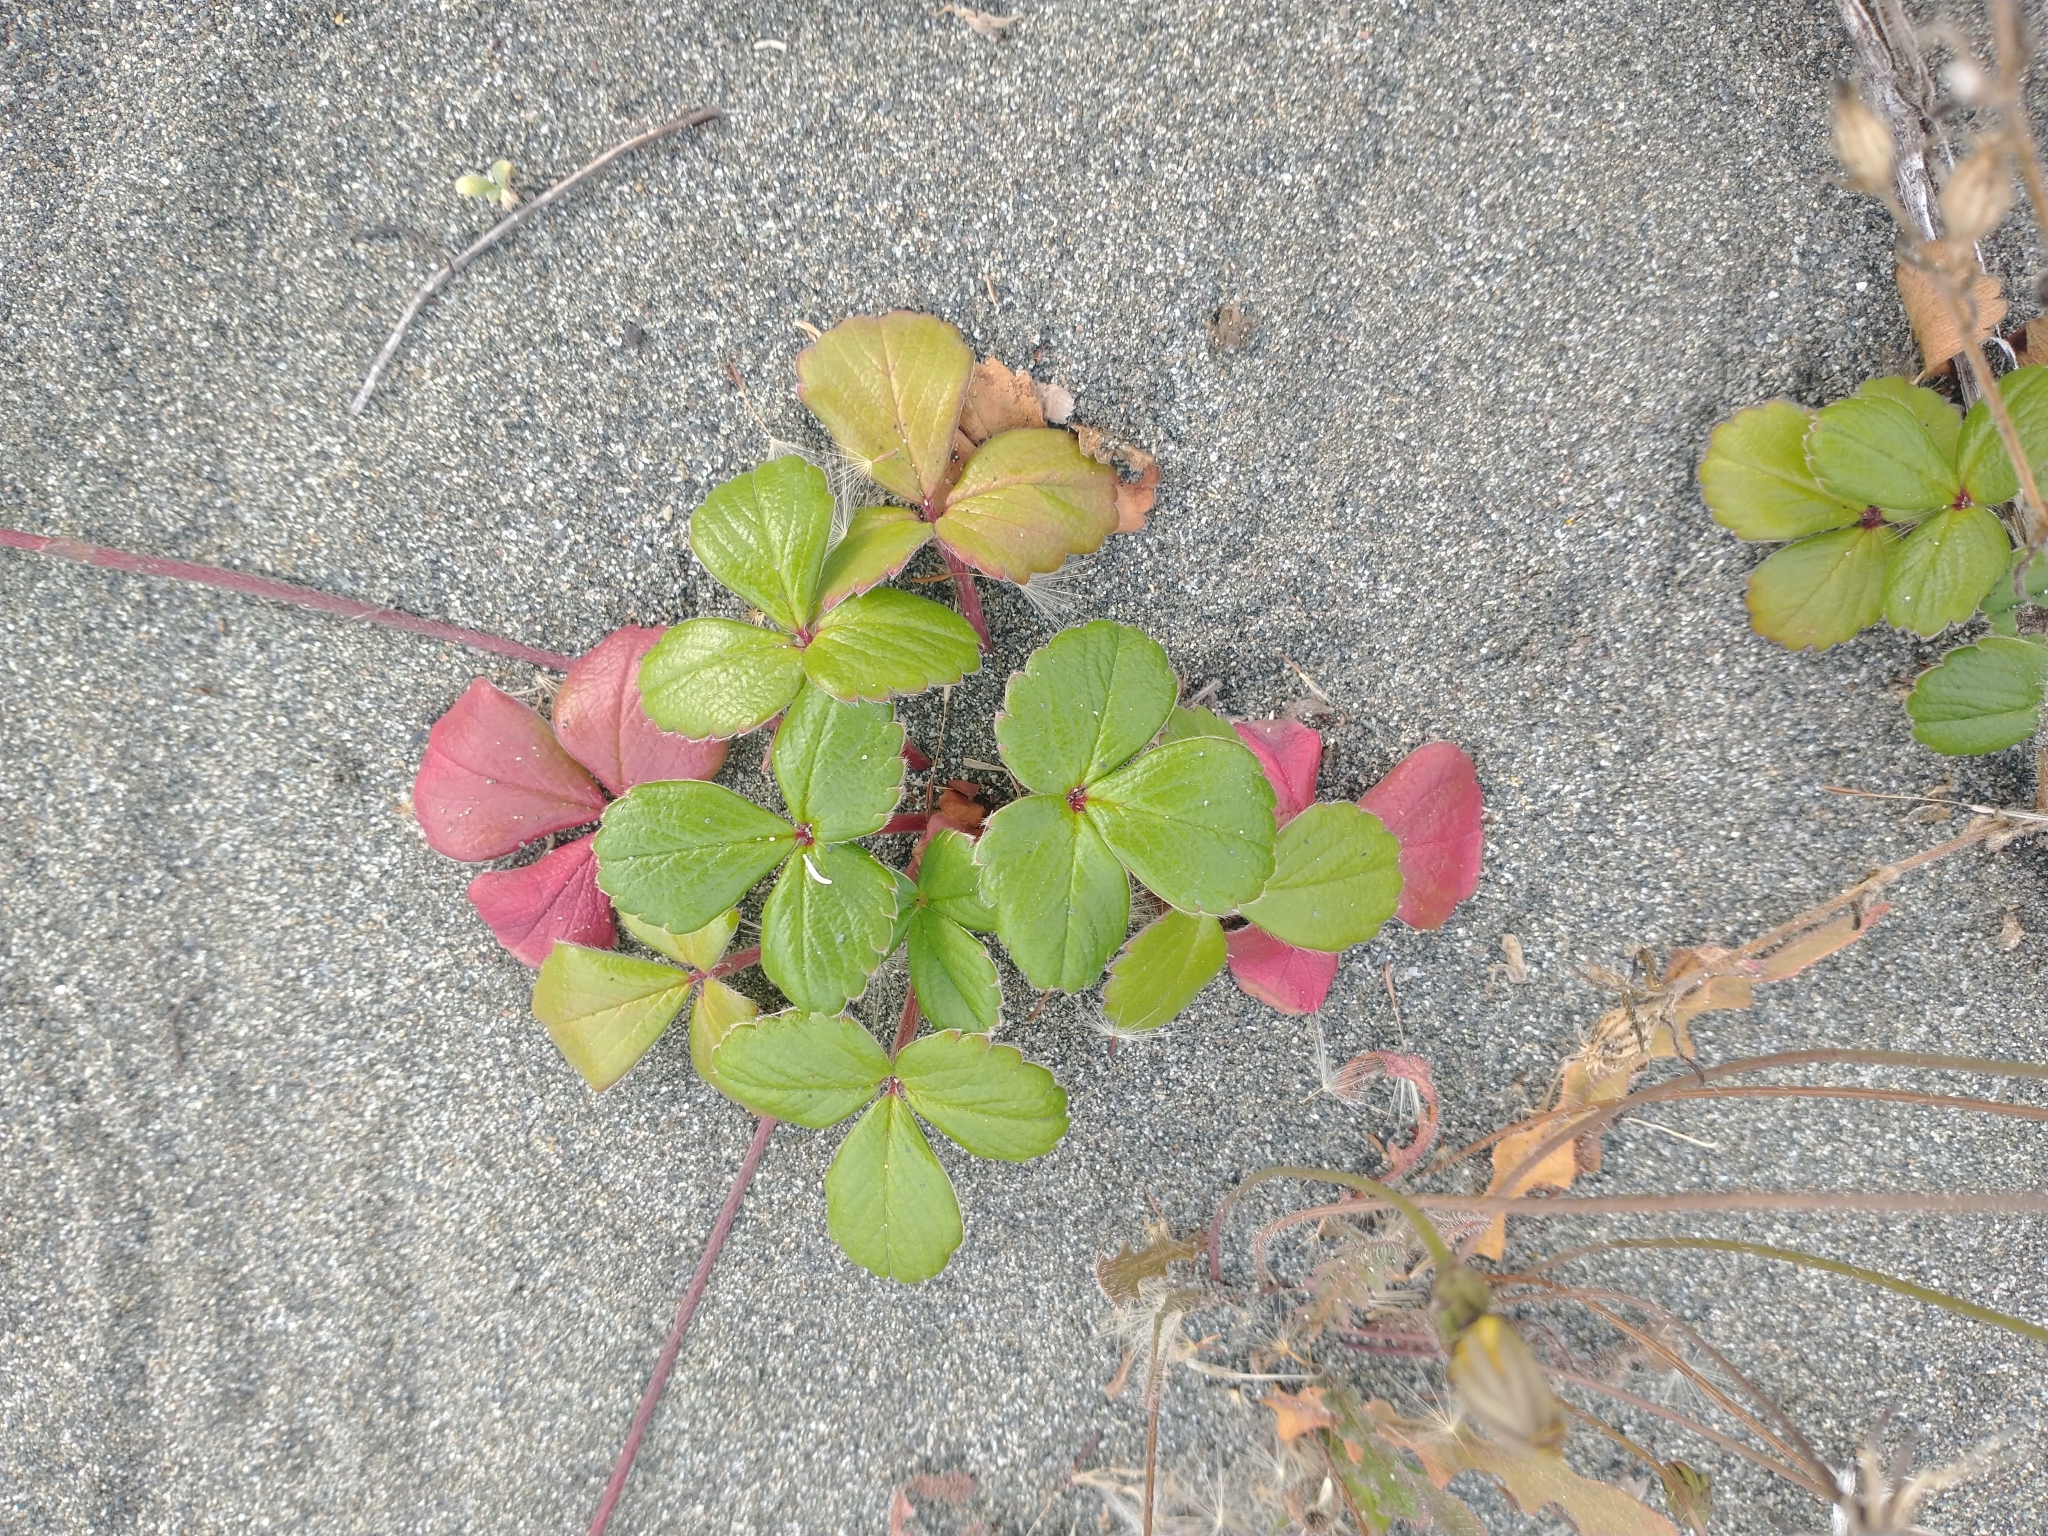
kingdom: Plantae
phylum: Tracheophyta
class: Magnoliopsida
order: Rosales
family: Rosaceae
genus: Fragaria
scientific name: Fragaria chiloensis
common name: Beach strawberry
